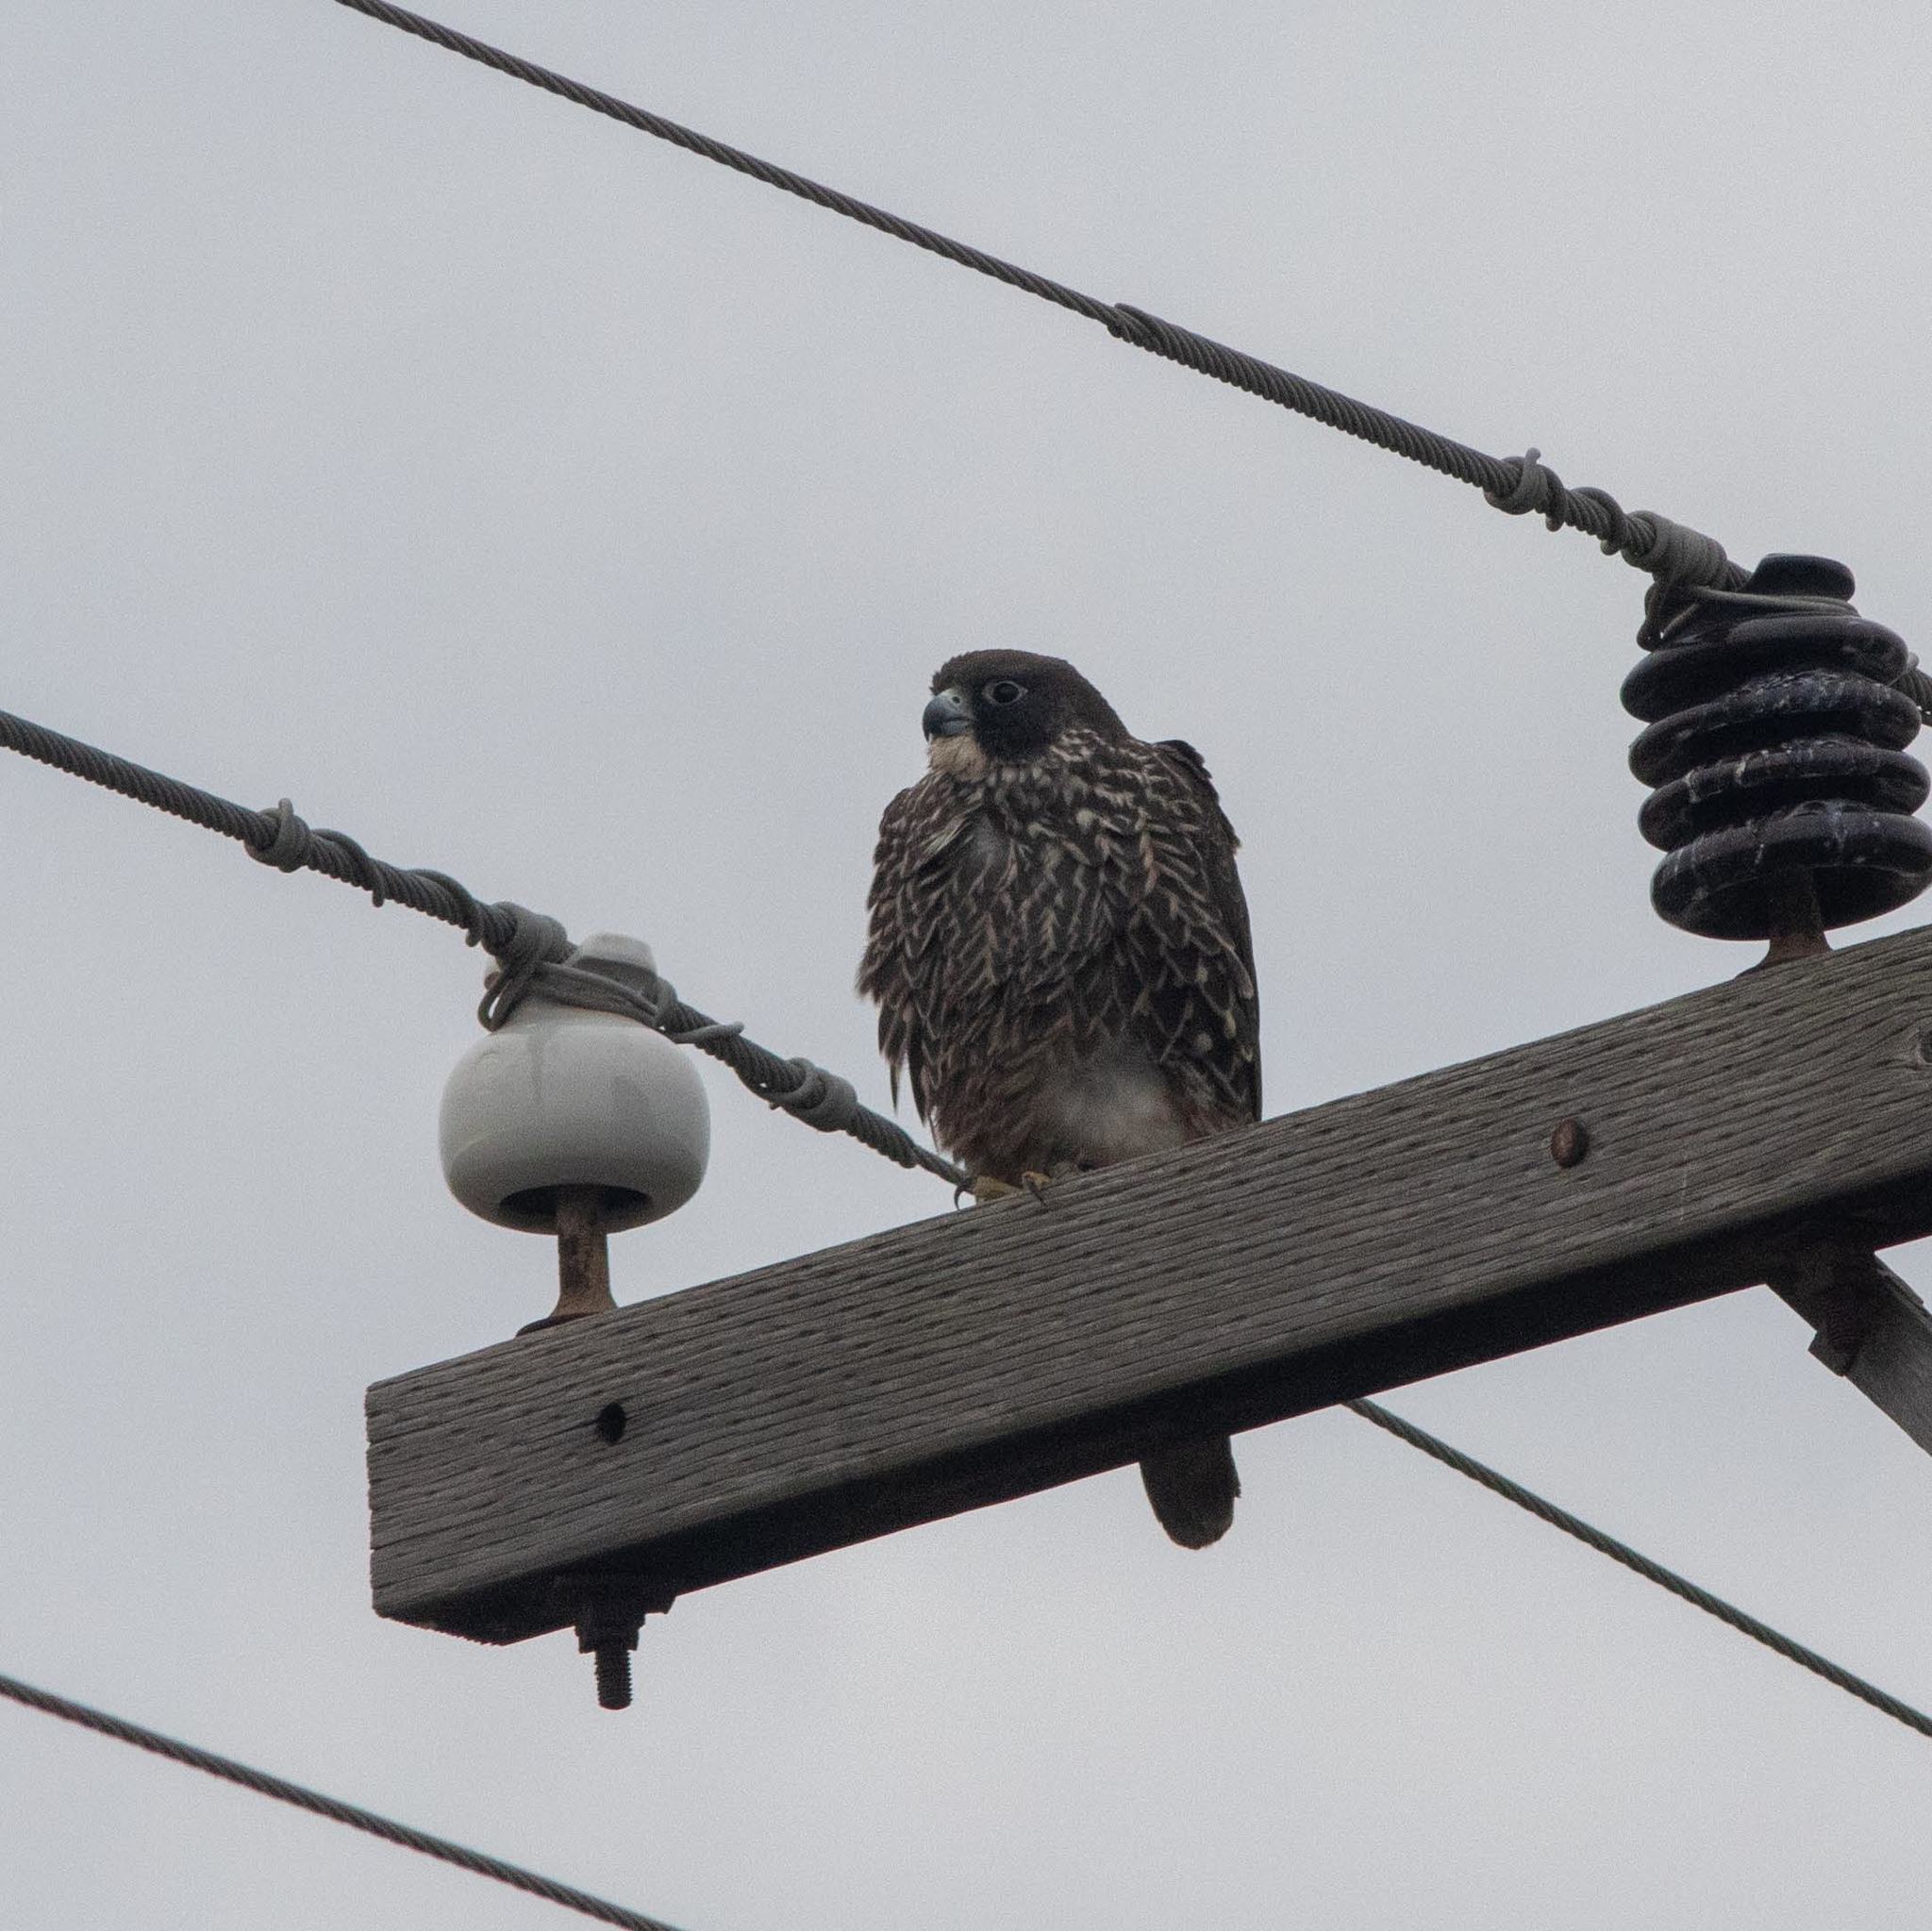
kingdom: Animalia
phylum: Chordata
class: Aves
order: Falconiformes
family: Falconidae
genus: Falco
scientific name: Falco peregrinus
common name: Peregrine falcon
